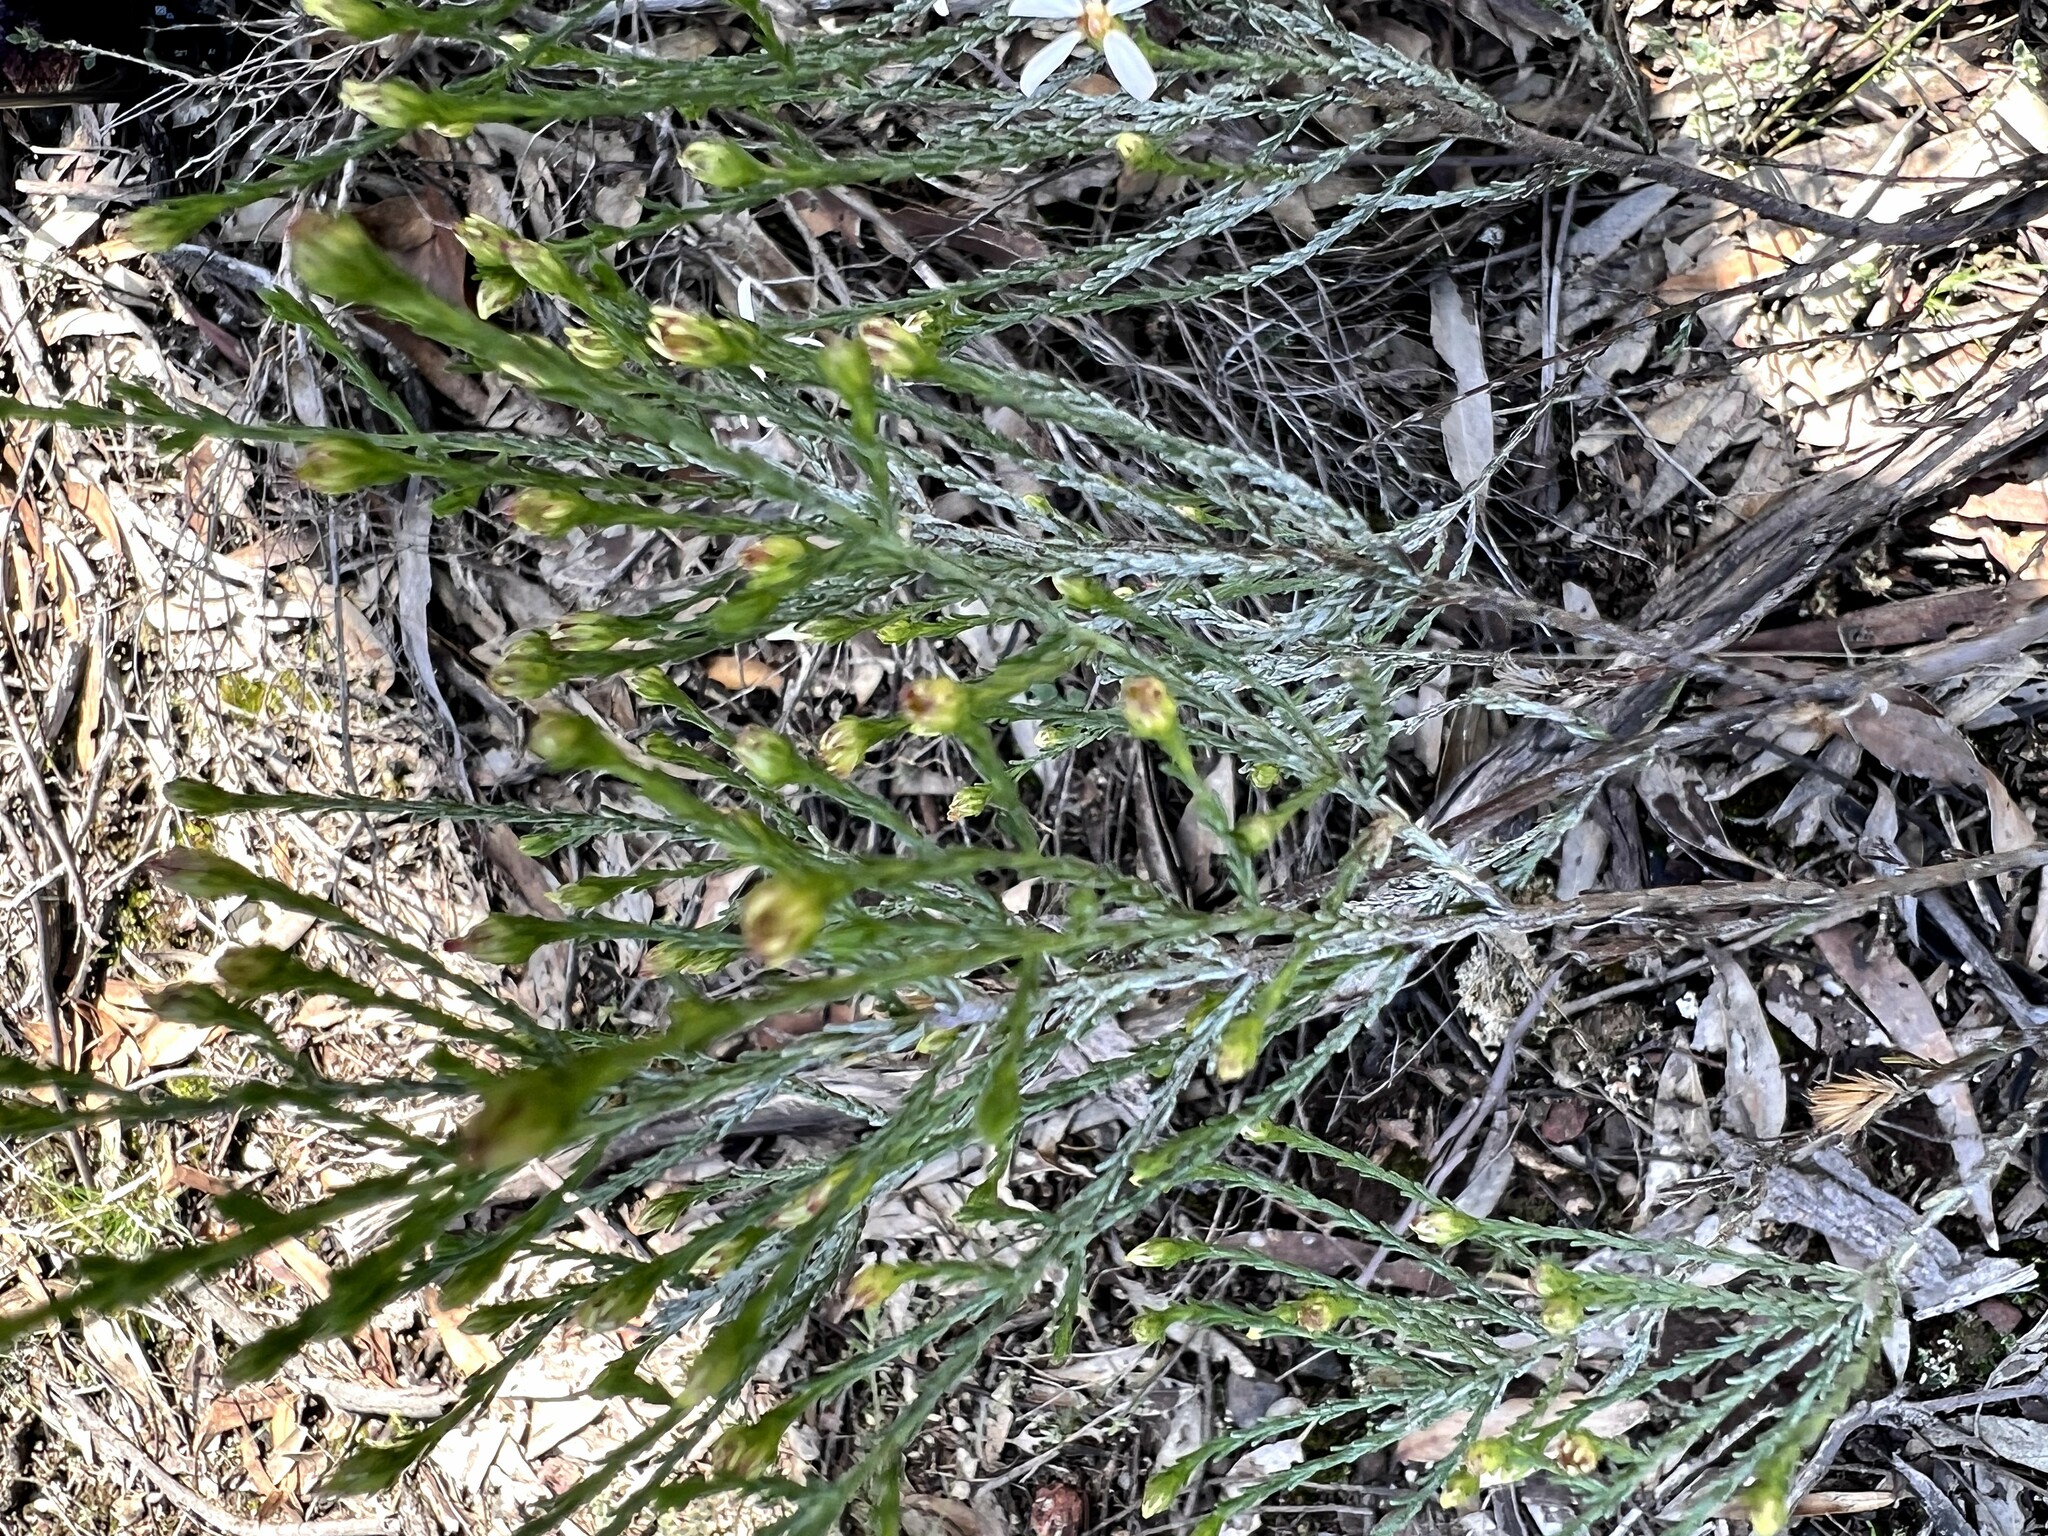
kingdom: Plantae
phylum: Tracheophyta
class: Magnoliopsida
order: Asterales
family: Asteraceae
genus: Olearia
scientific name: Olearia teretifolia
